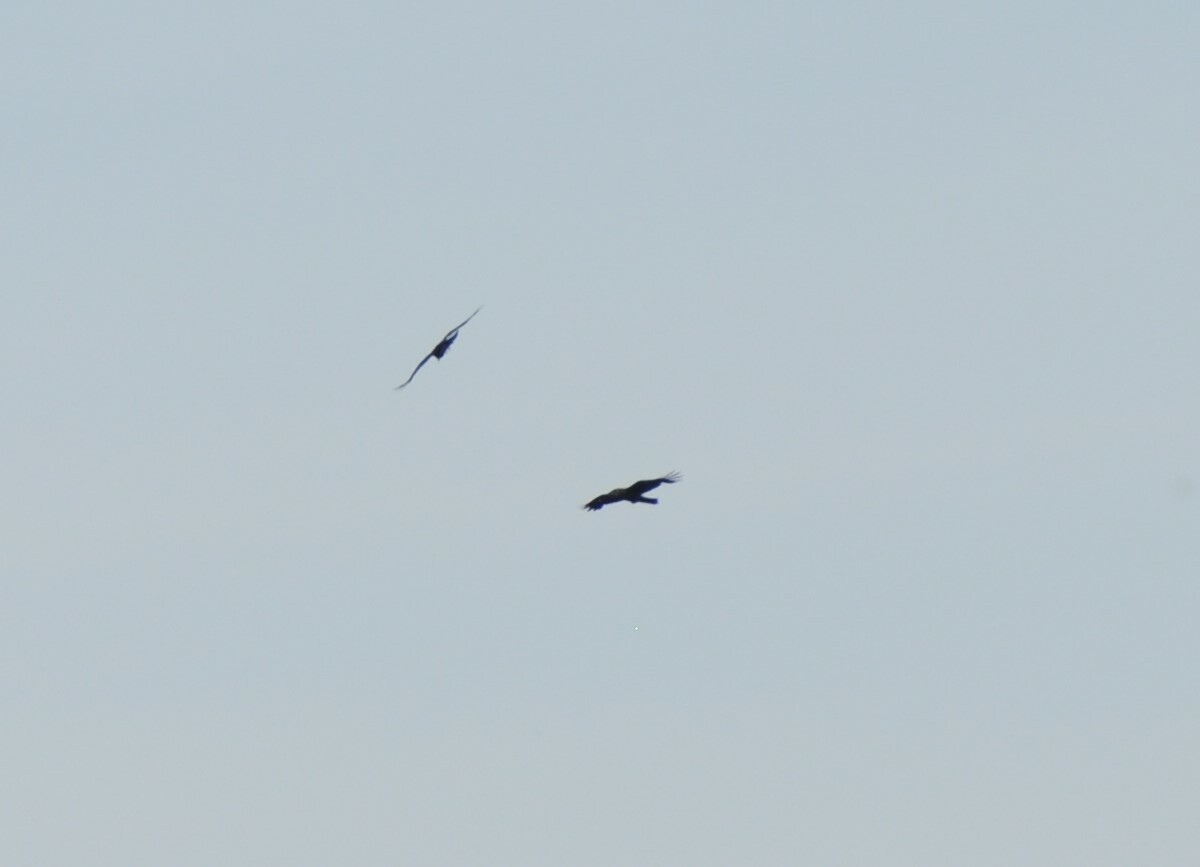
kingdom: Animalia
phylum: Chordata
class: Aves
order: Passeriformes
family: Corvidae
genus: Corvus
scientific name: Corvus corax
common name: Common raven
